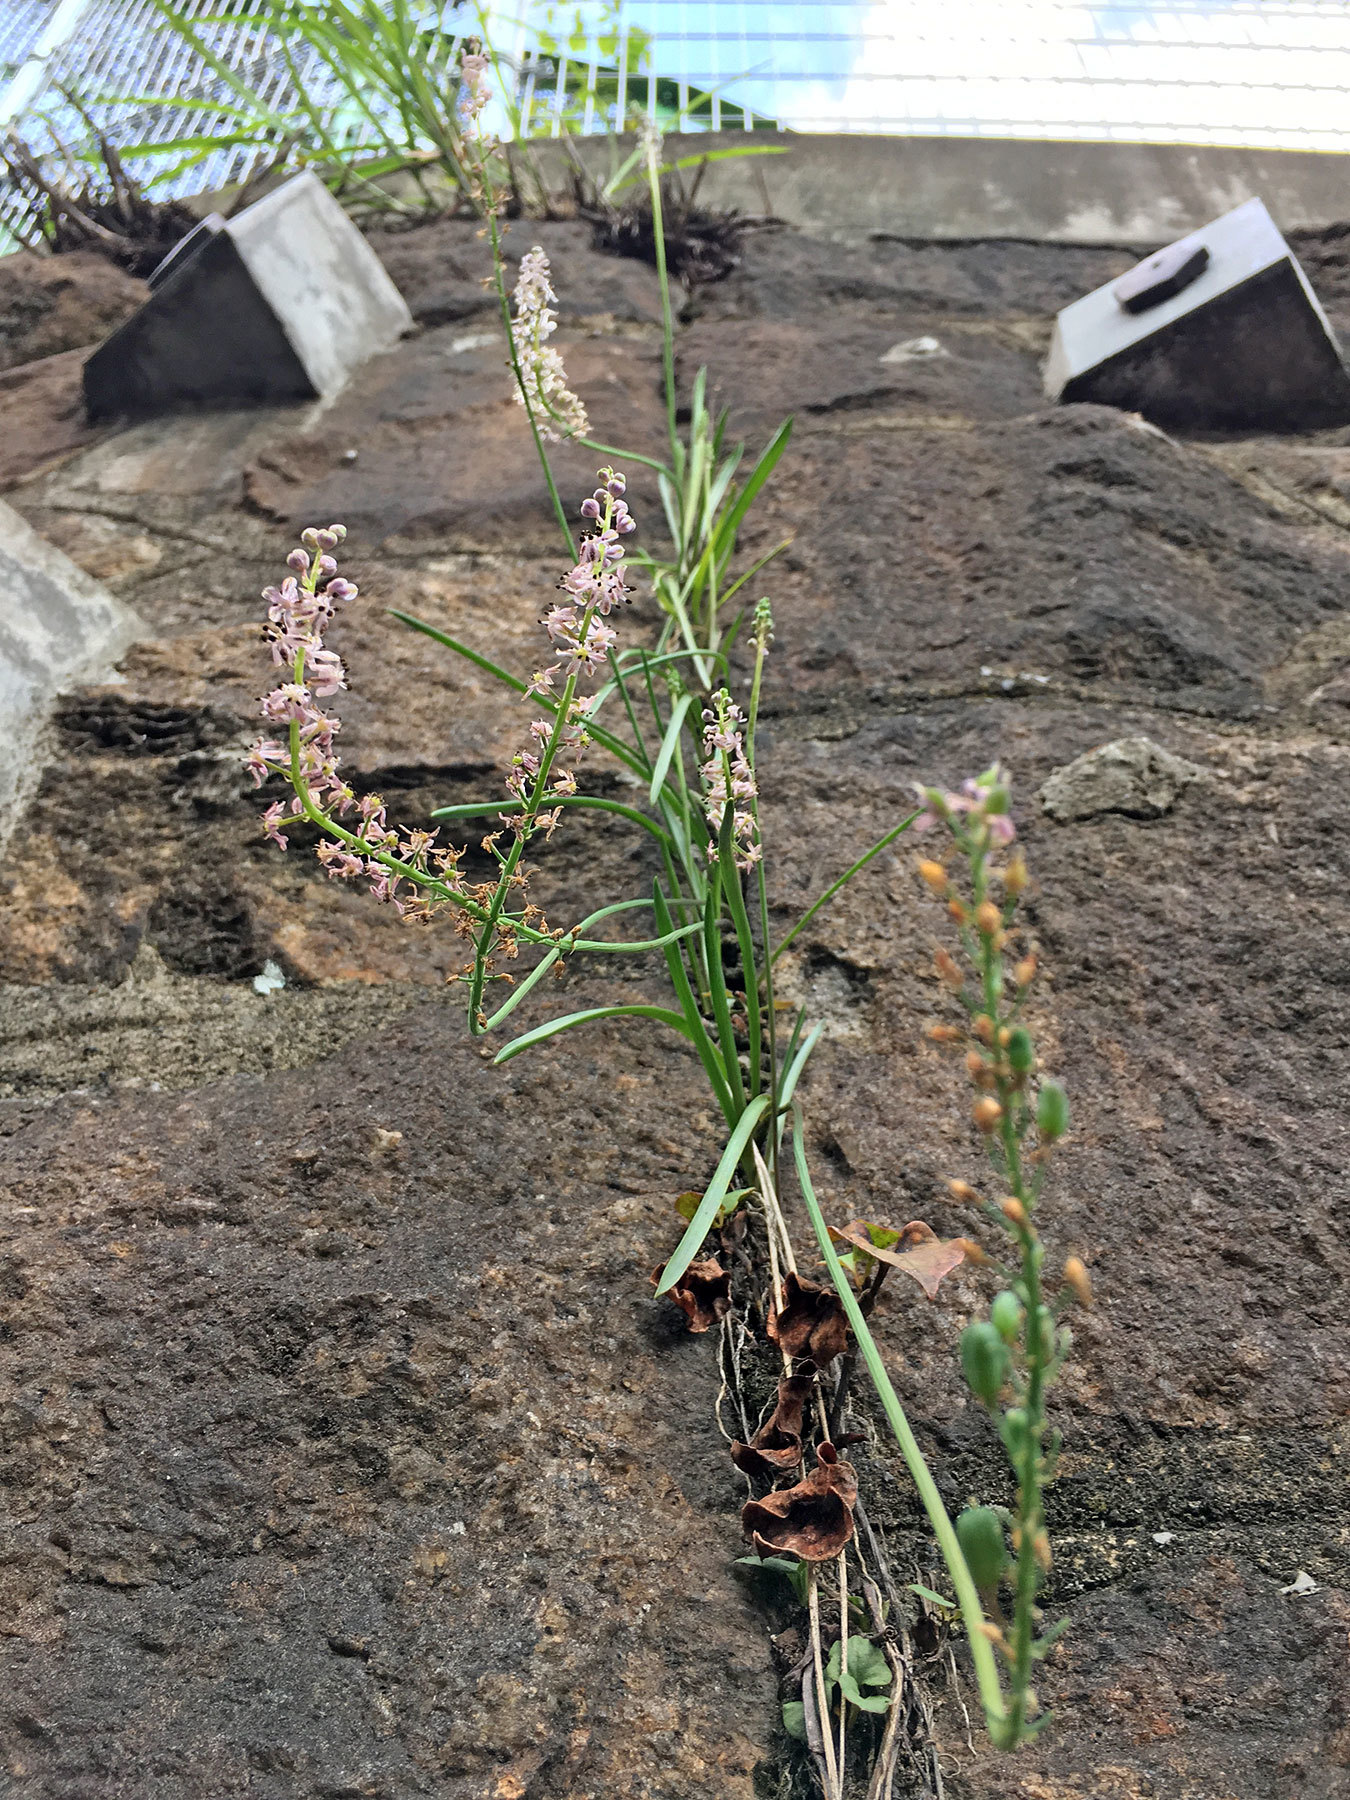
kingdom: Plantae
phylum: Tracheophyta
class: Liliopsida
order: Asparagales
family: Asparagaceae
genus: Barnardia
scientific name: Barnardia japonica
